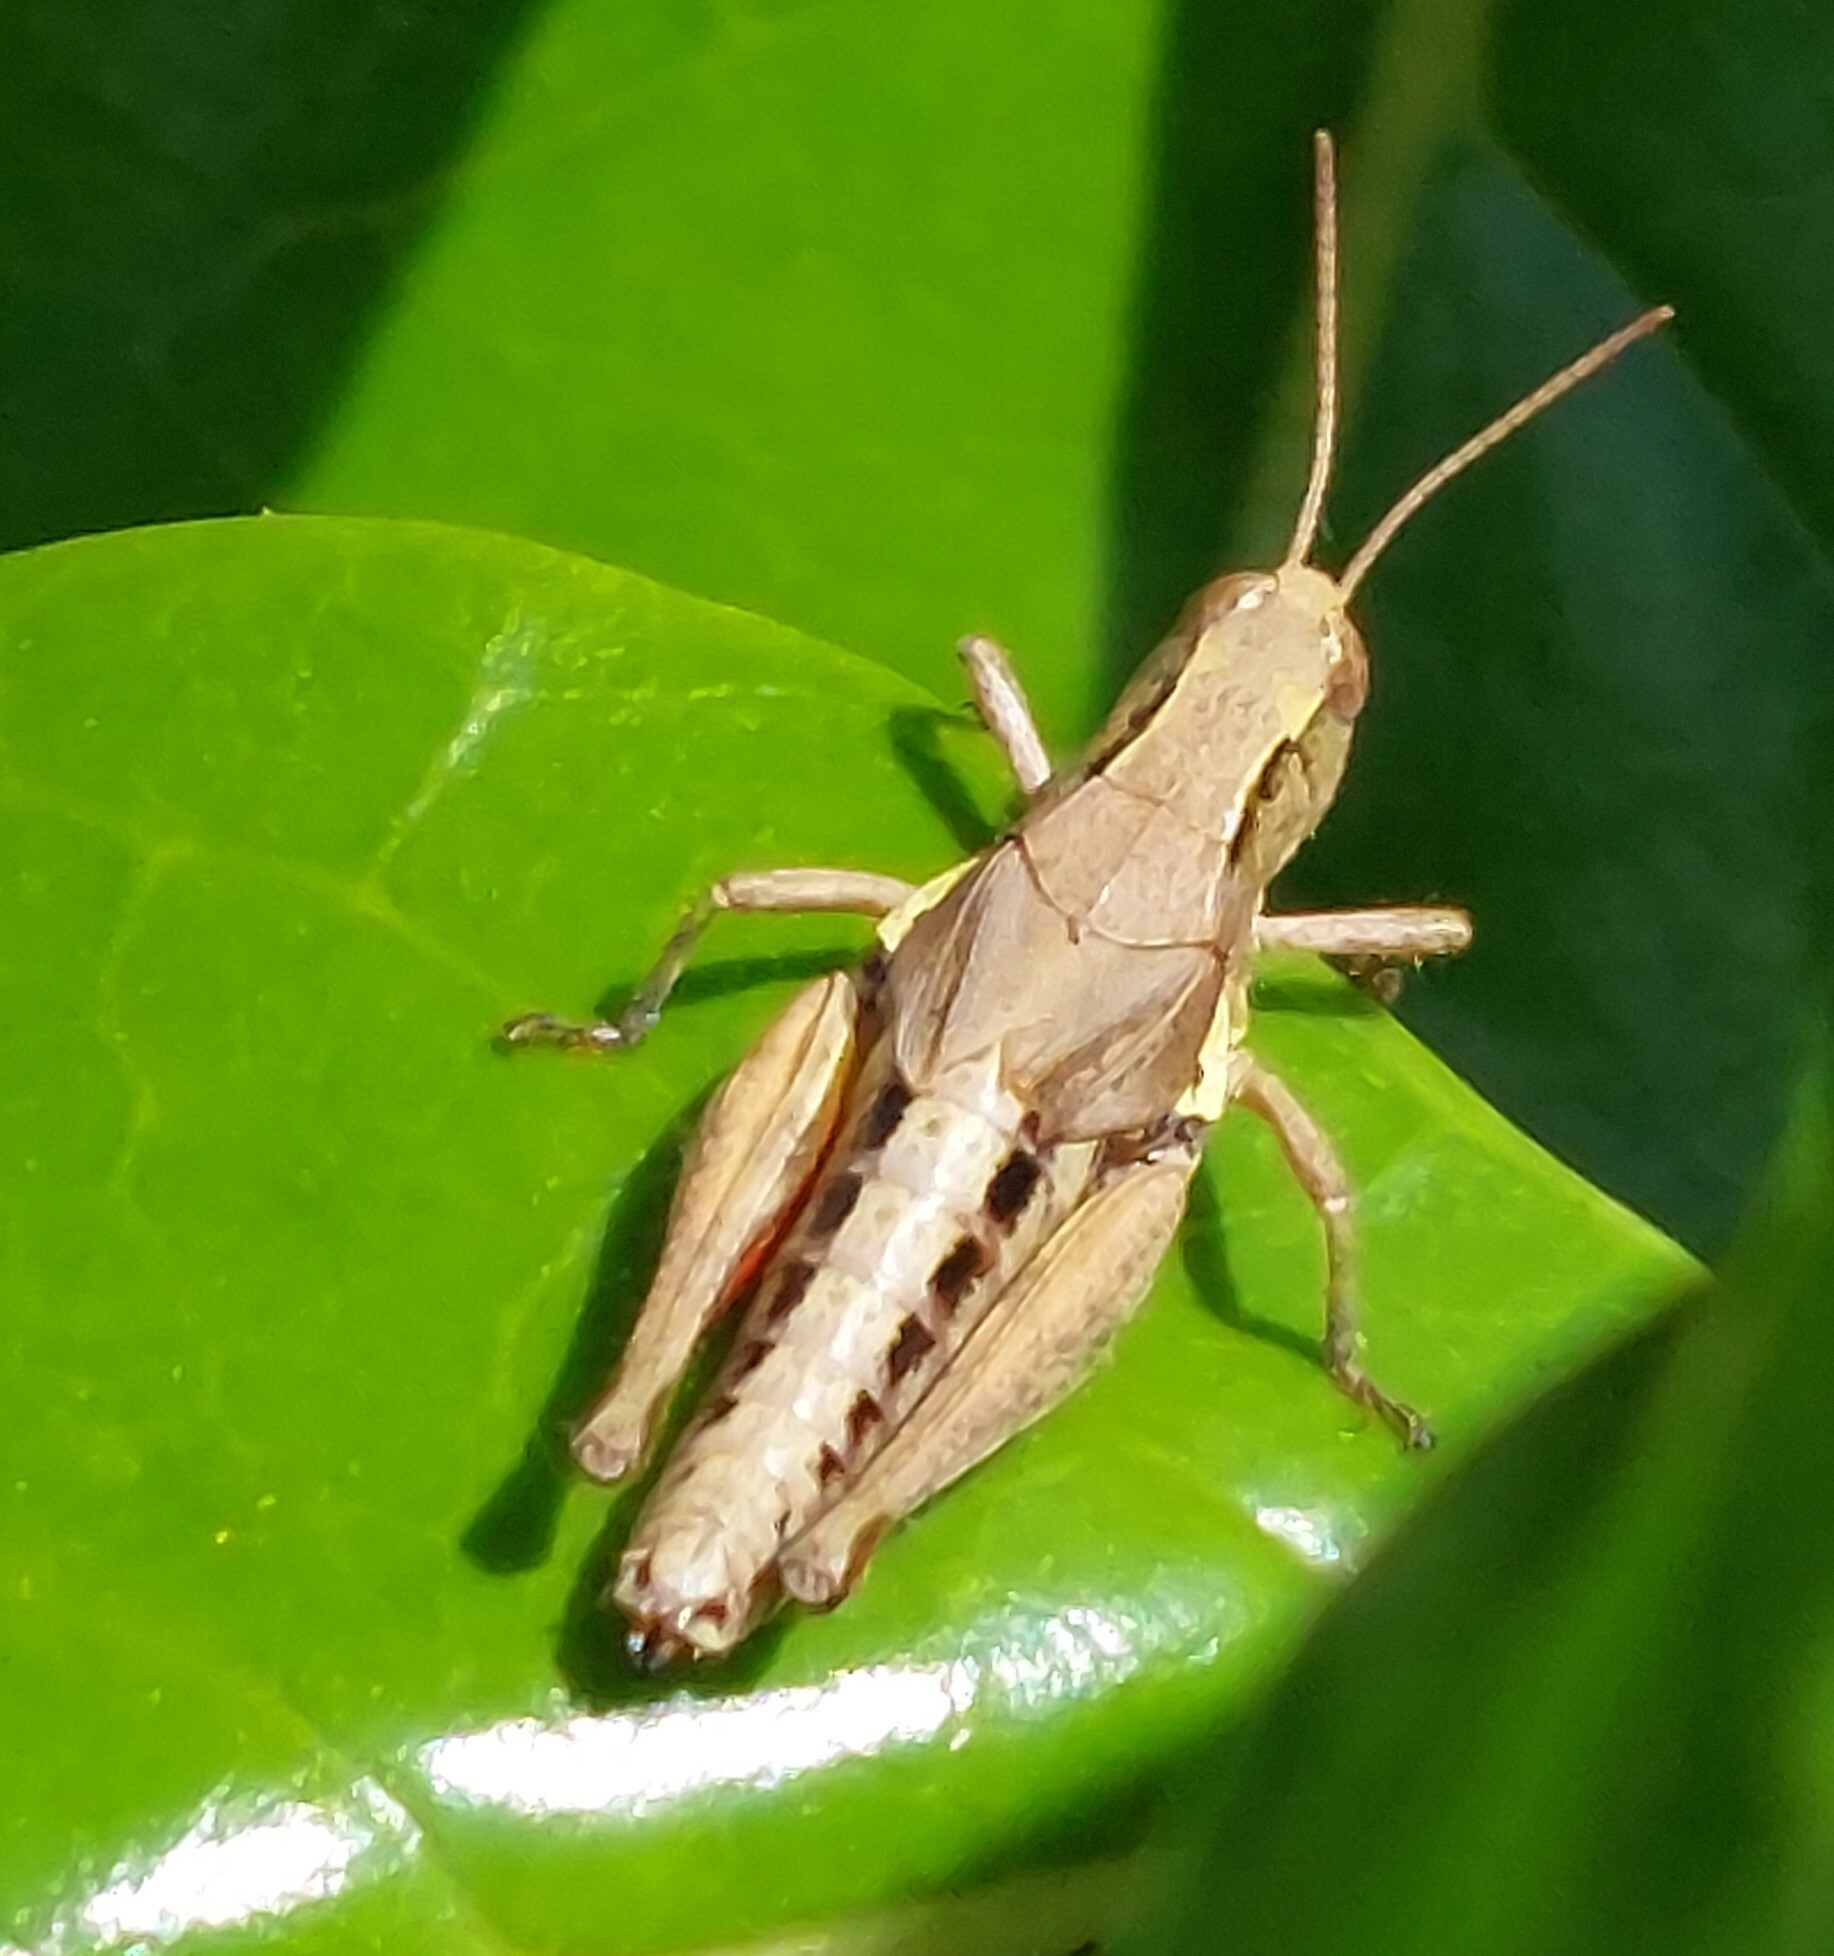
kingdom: Animalia
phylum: Arthropoda
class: Insecta
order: Orthoptera
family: Acrididae
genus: Phaulacridium
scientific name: Phaulacridium marginale
